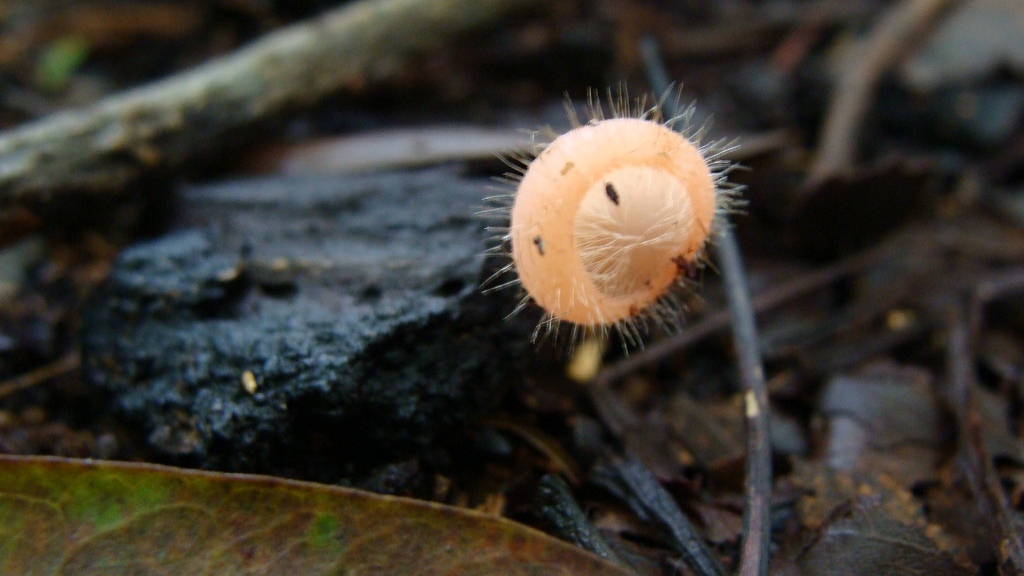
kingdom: Fungi
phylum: Ascomycota
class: Pezizomycetes
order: Pezizales
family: Sarcoscyphaceae
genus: Cookeina
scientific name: Cookeina tricholoma
